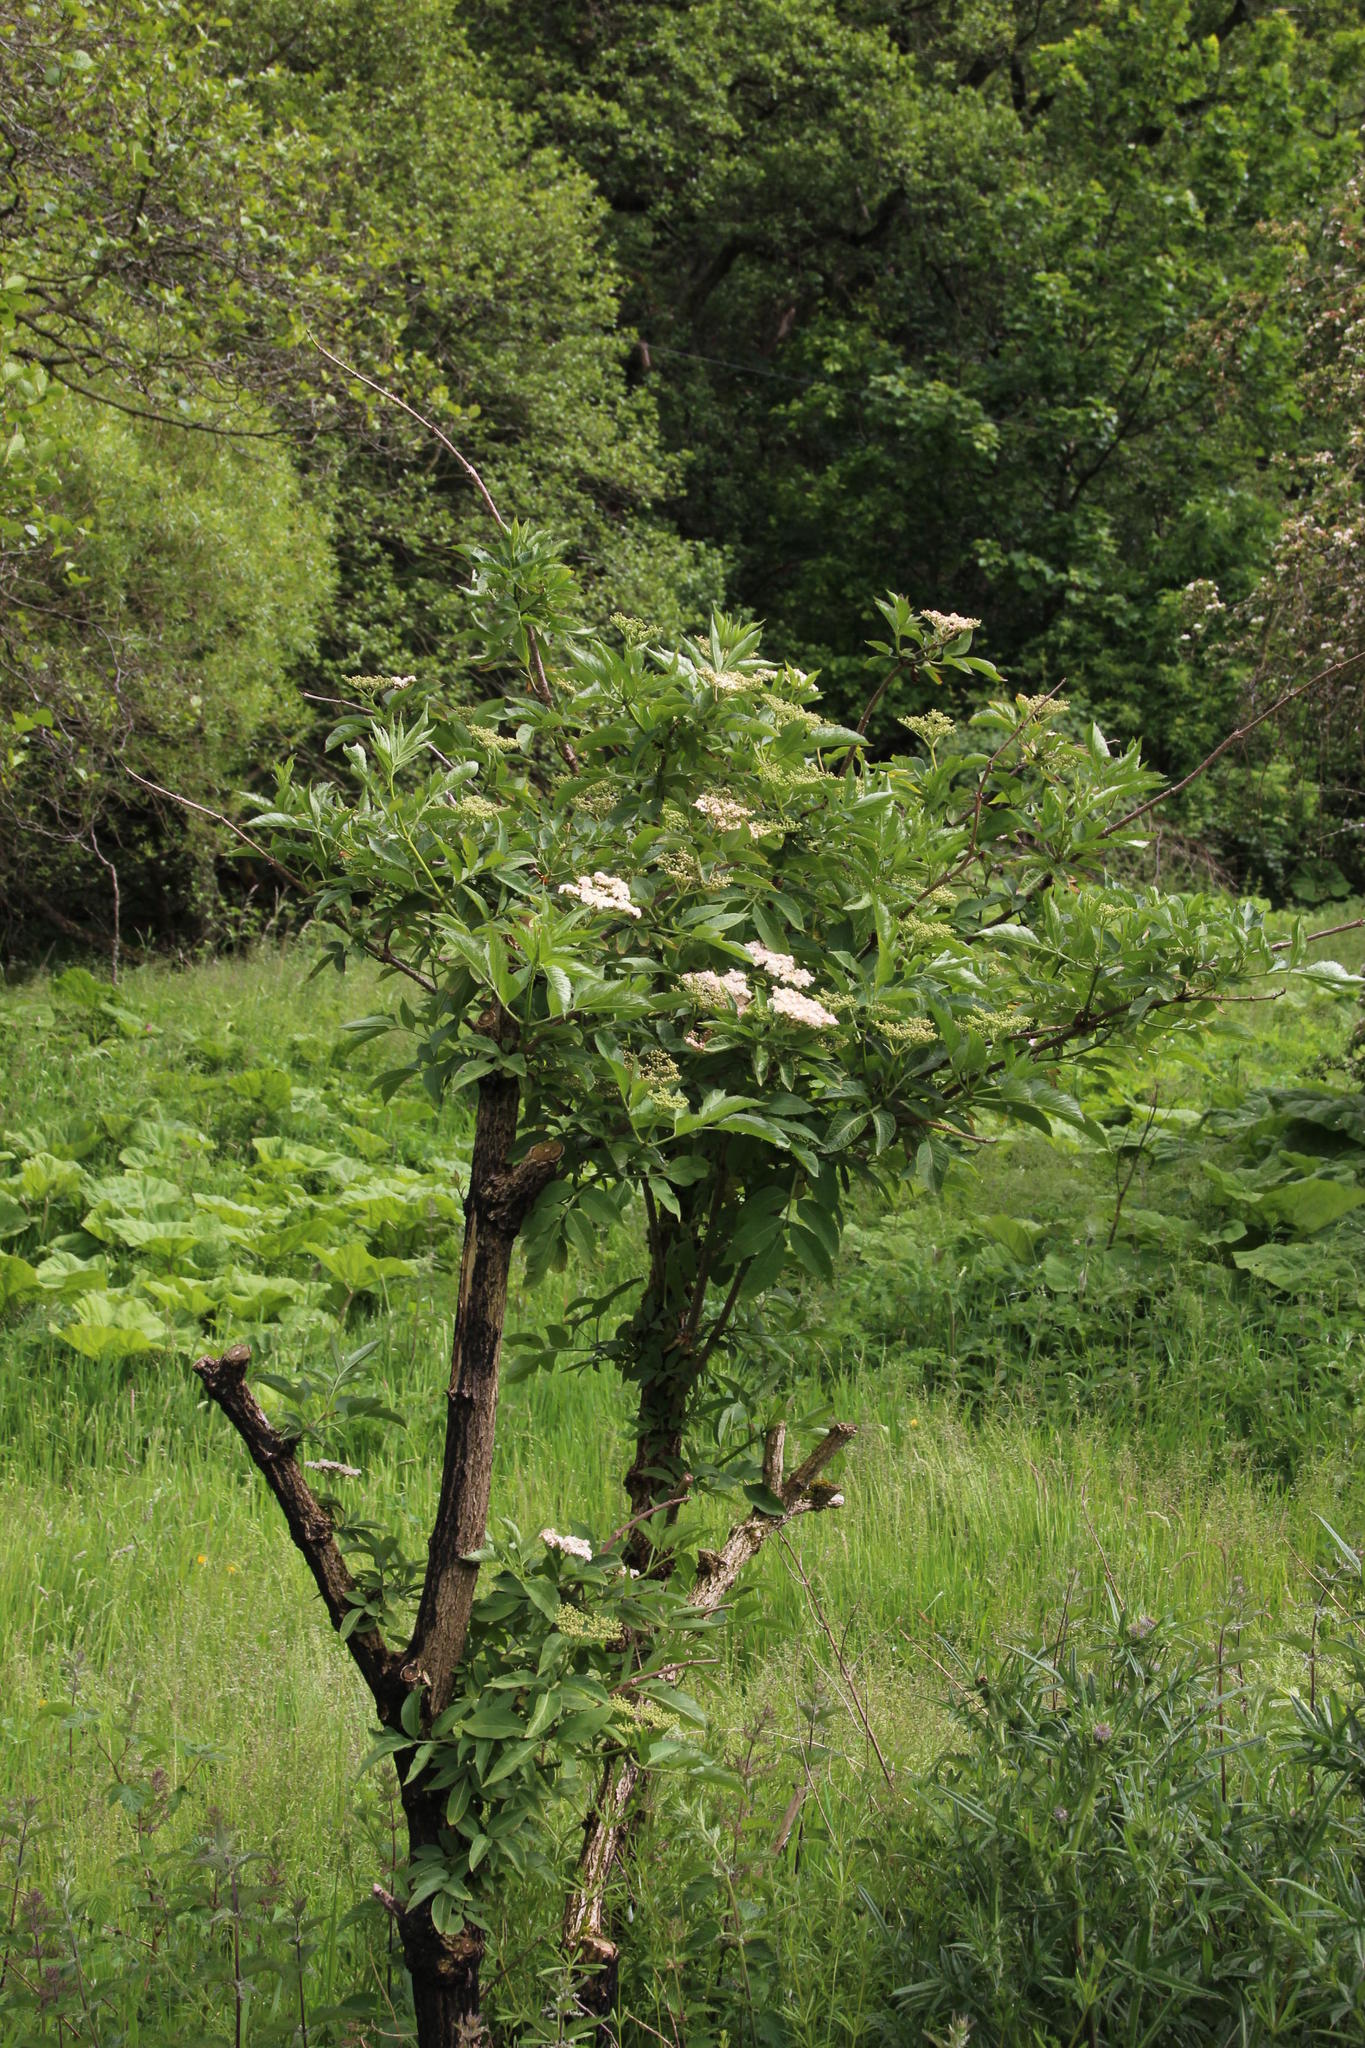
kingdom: Plantae
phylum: Tracheophyta
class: Magnoliopsida
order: Dipsacales
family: Viburnaceae
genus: Sambucus
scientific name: Sambucus nigra
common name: Elder
